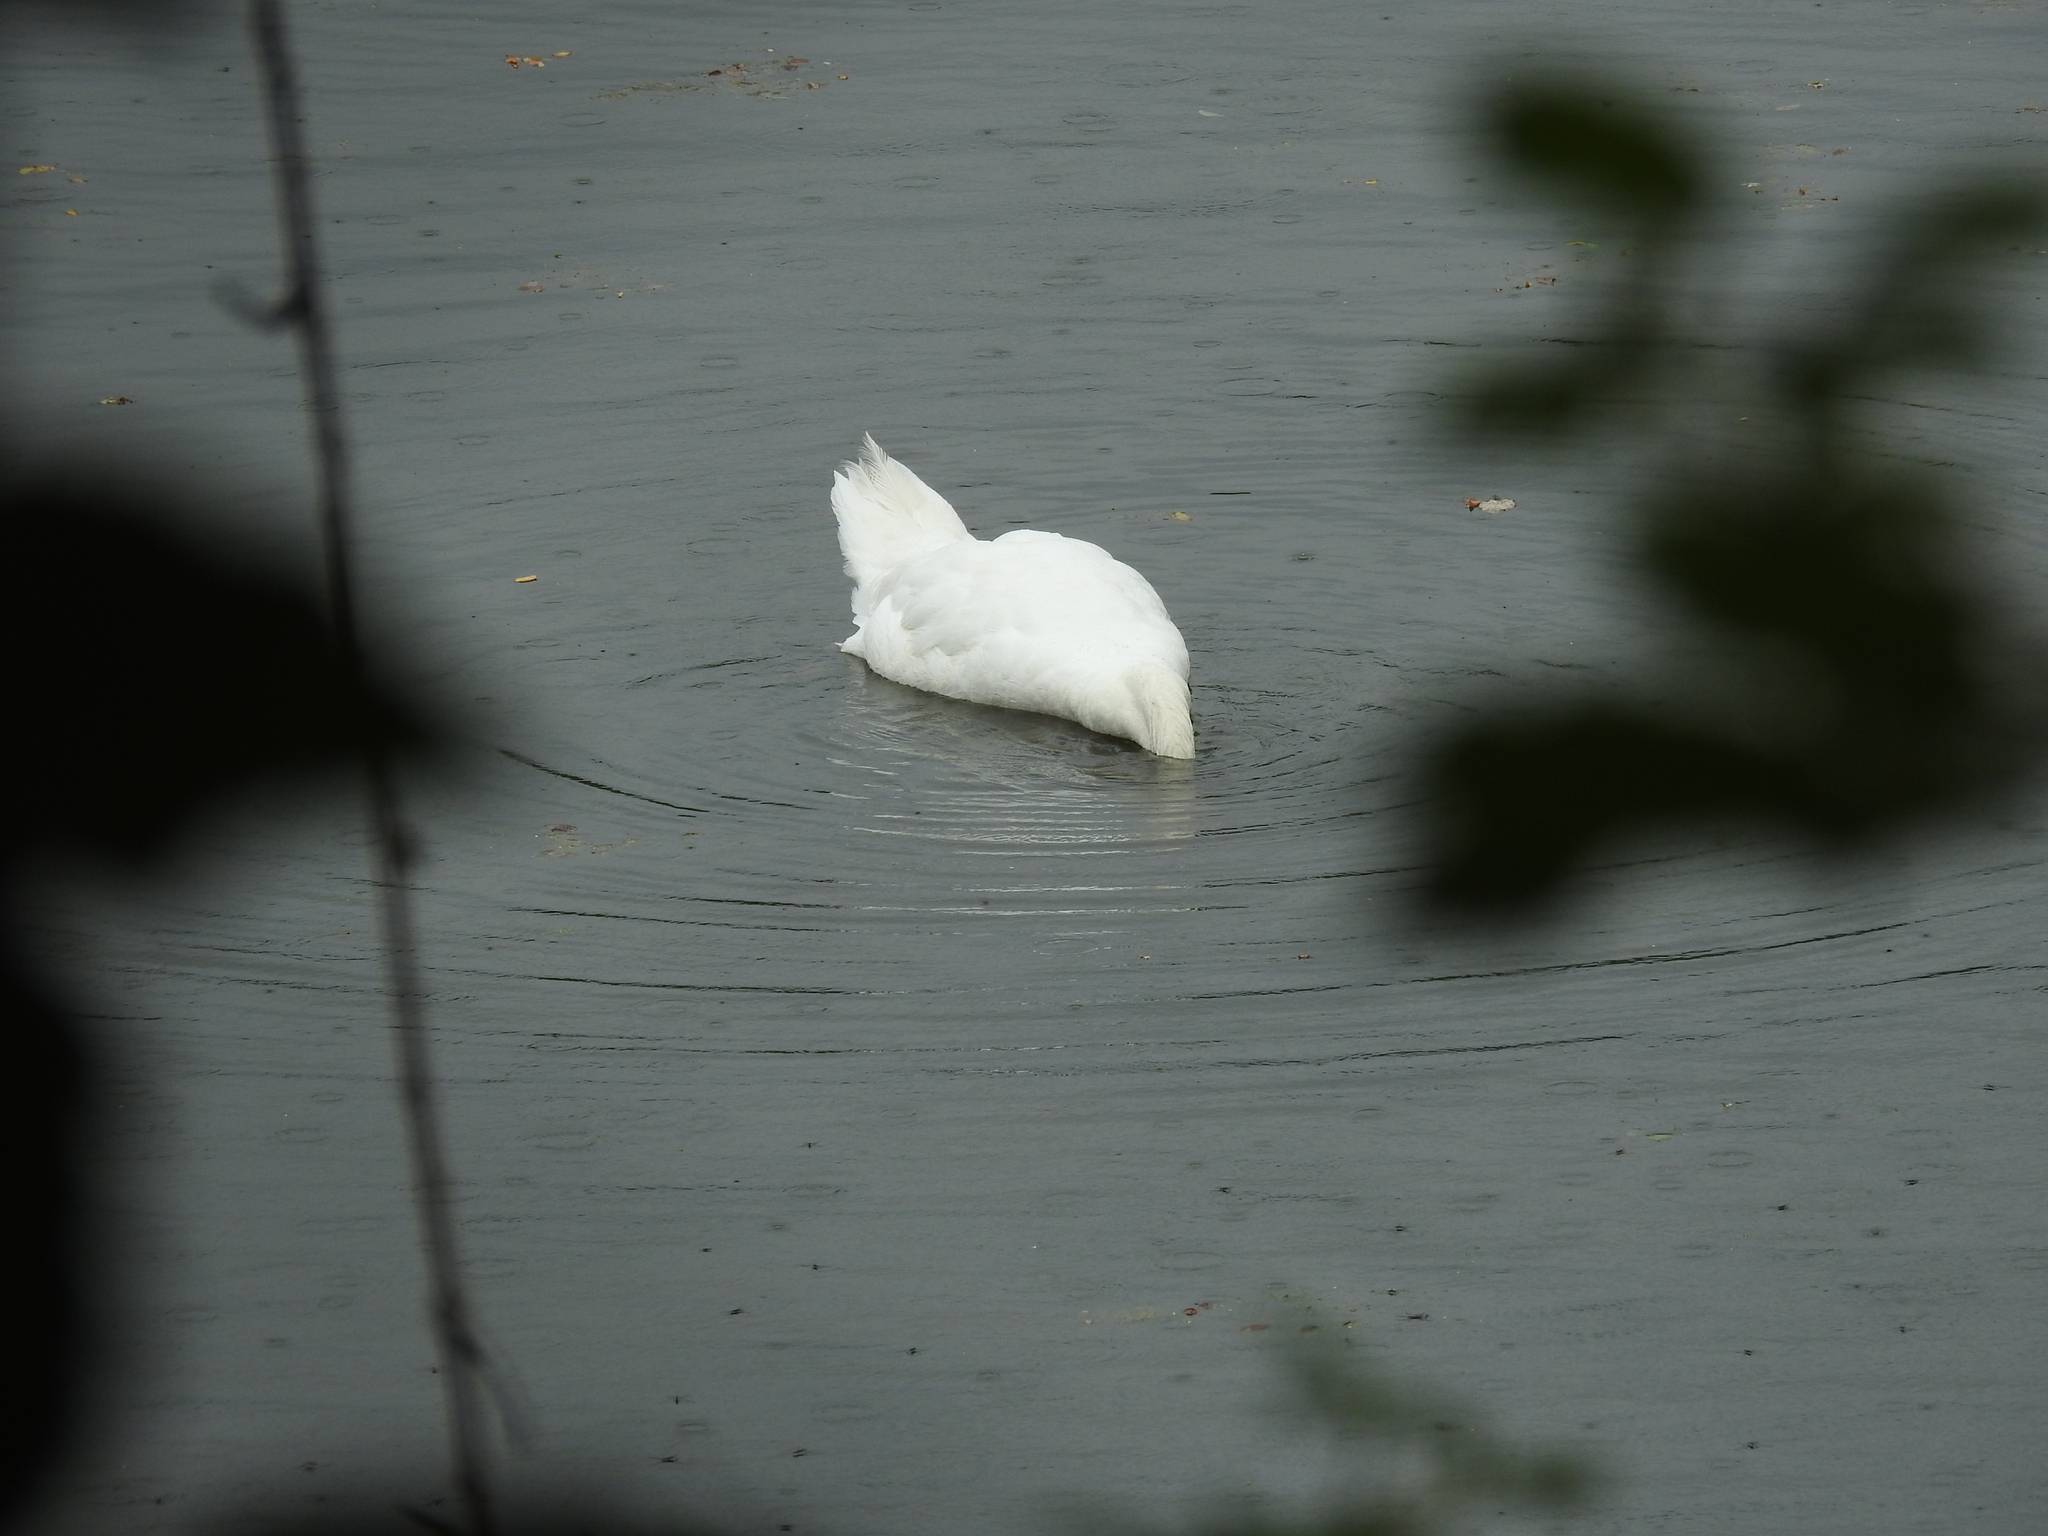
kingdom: Animalia
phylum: Chordata
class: Aves
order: Anseriformes
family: Anatidae
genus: Cygnus
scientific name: Cygnus olor
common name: Mute swan
